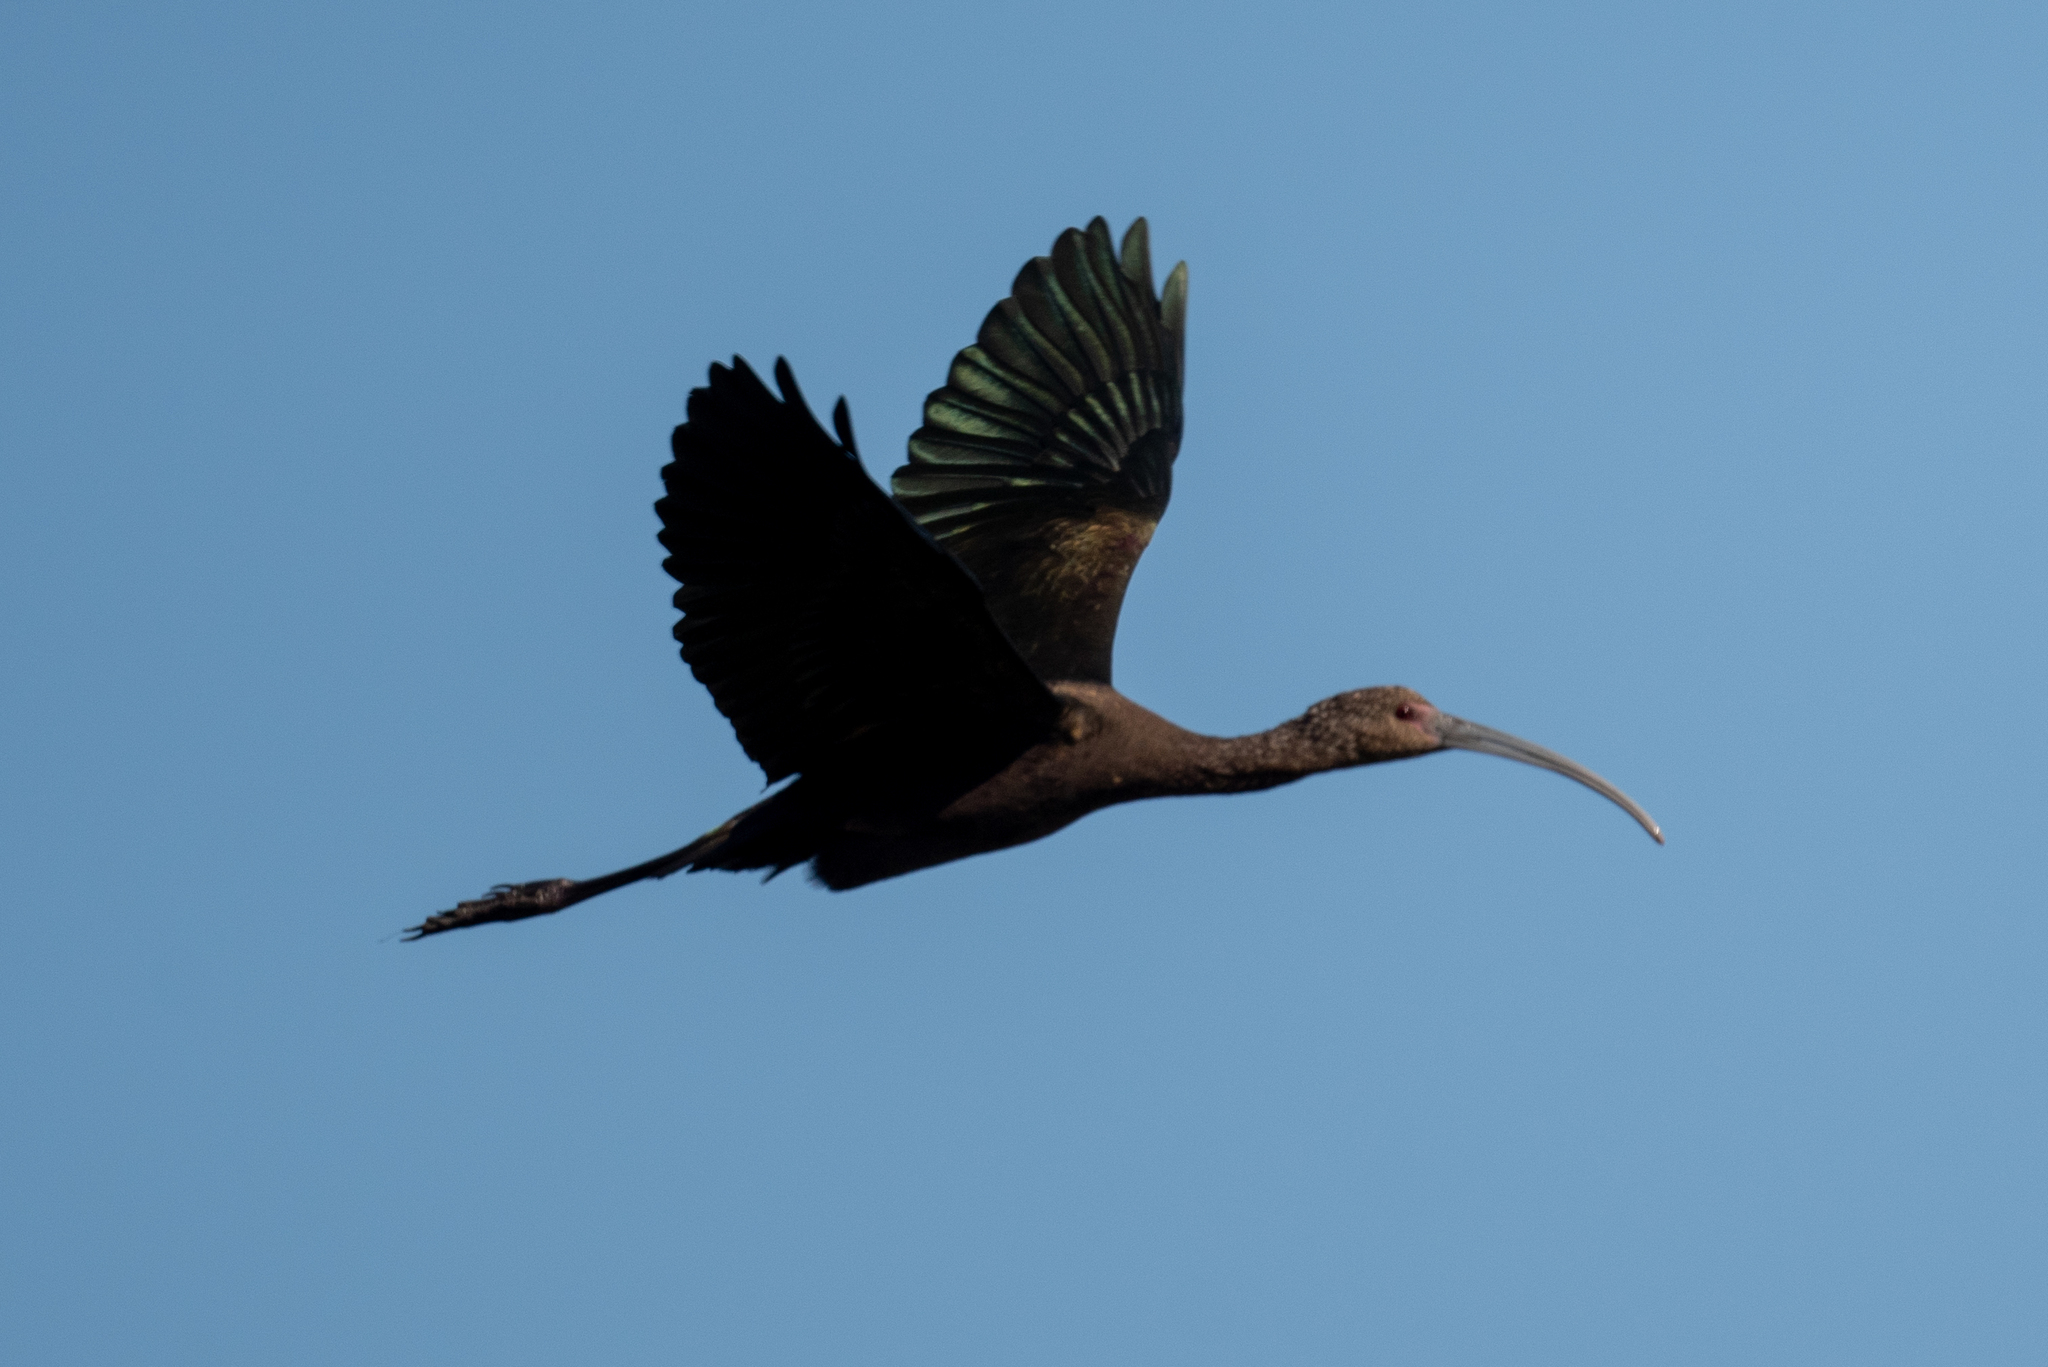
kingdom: Animalia
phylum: Chordata
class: Aves
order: Pelecaniformes
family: Threskiornithidae
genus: Plegadis
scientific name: Plegadis chihi
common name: White-faced ibis
